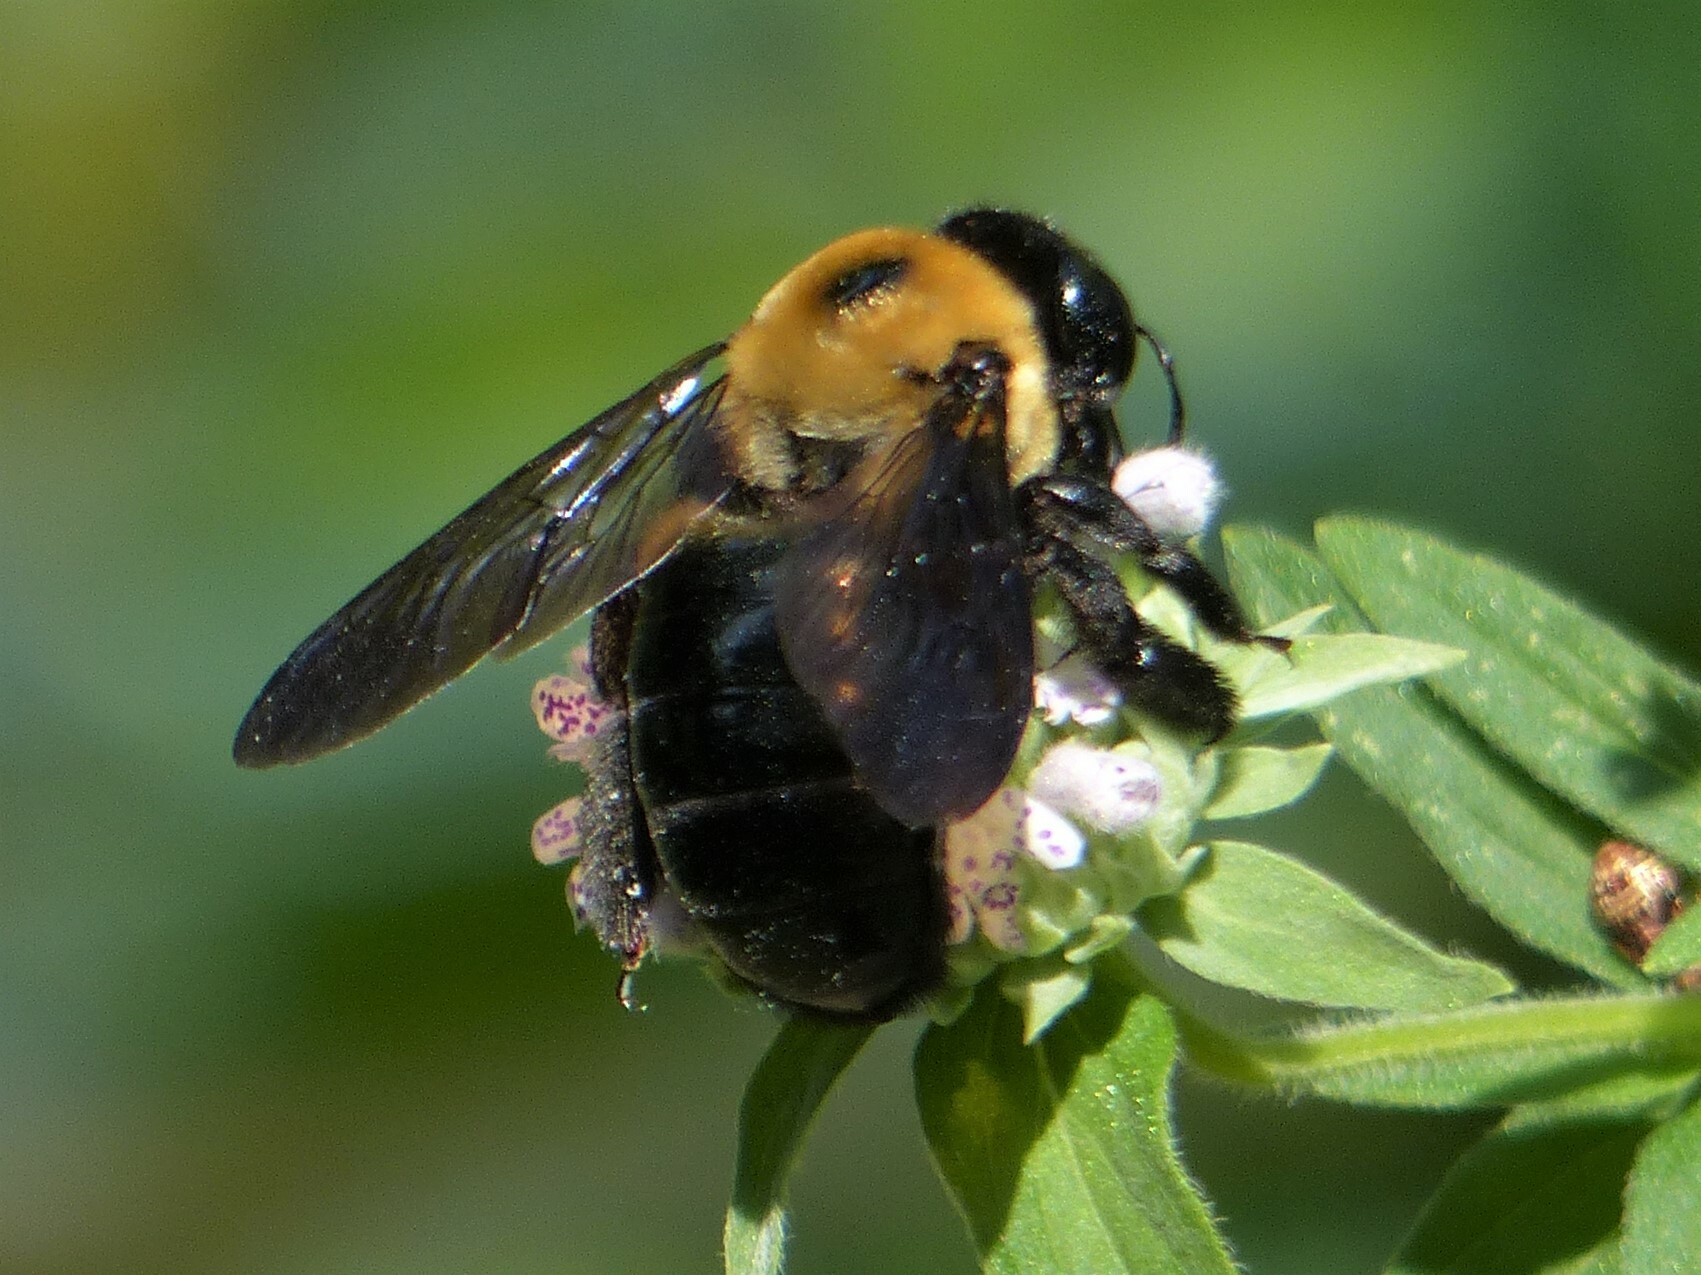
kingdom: Animalia
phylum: Arthropoda
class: Insecta
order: Hymenoptera
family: Apidae
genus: Xylocopa
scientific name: Xylocopa virginica
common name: Carpenter bee
